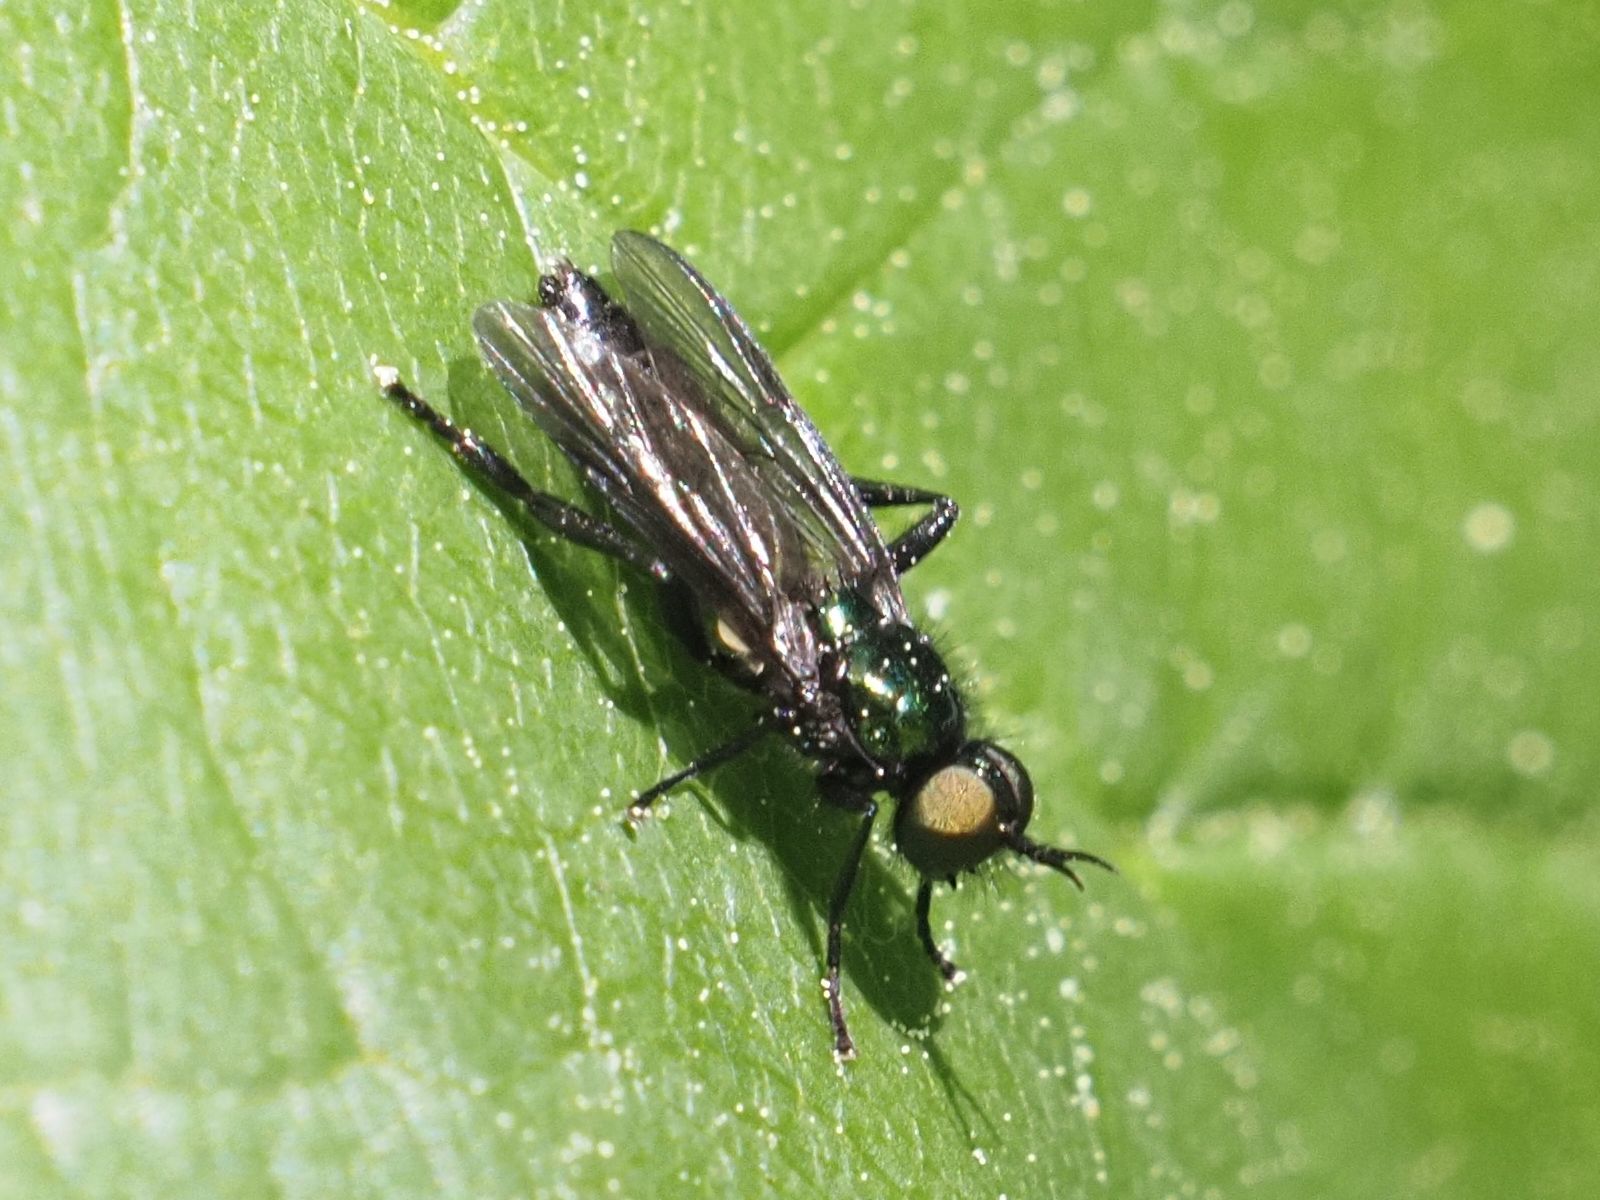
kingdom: Animalia
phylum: Arthropoda
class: Insecta
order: Diptera
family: Stratiomyidae
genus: Actina
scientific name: Actina chalybea
